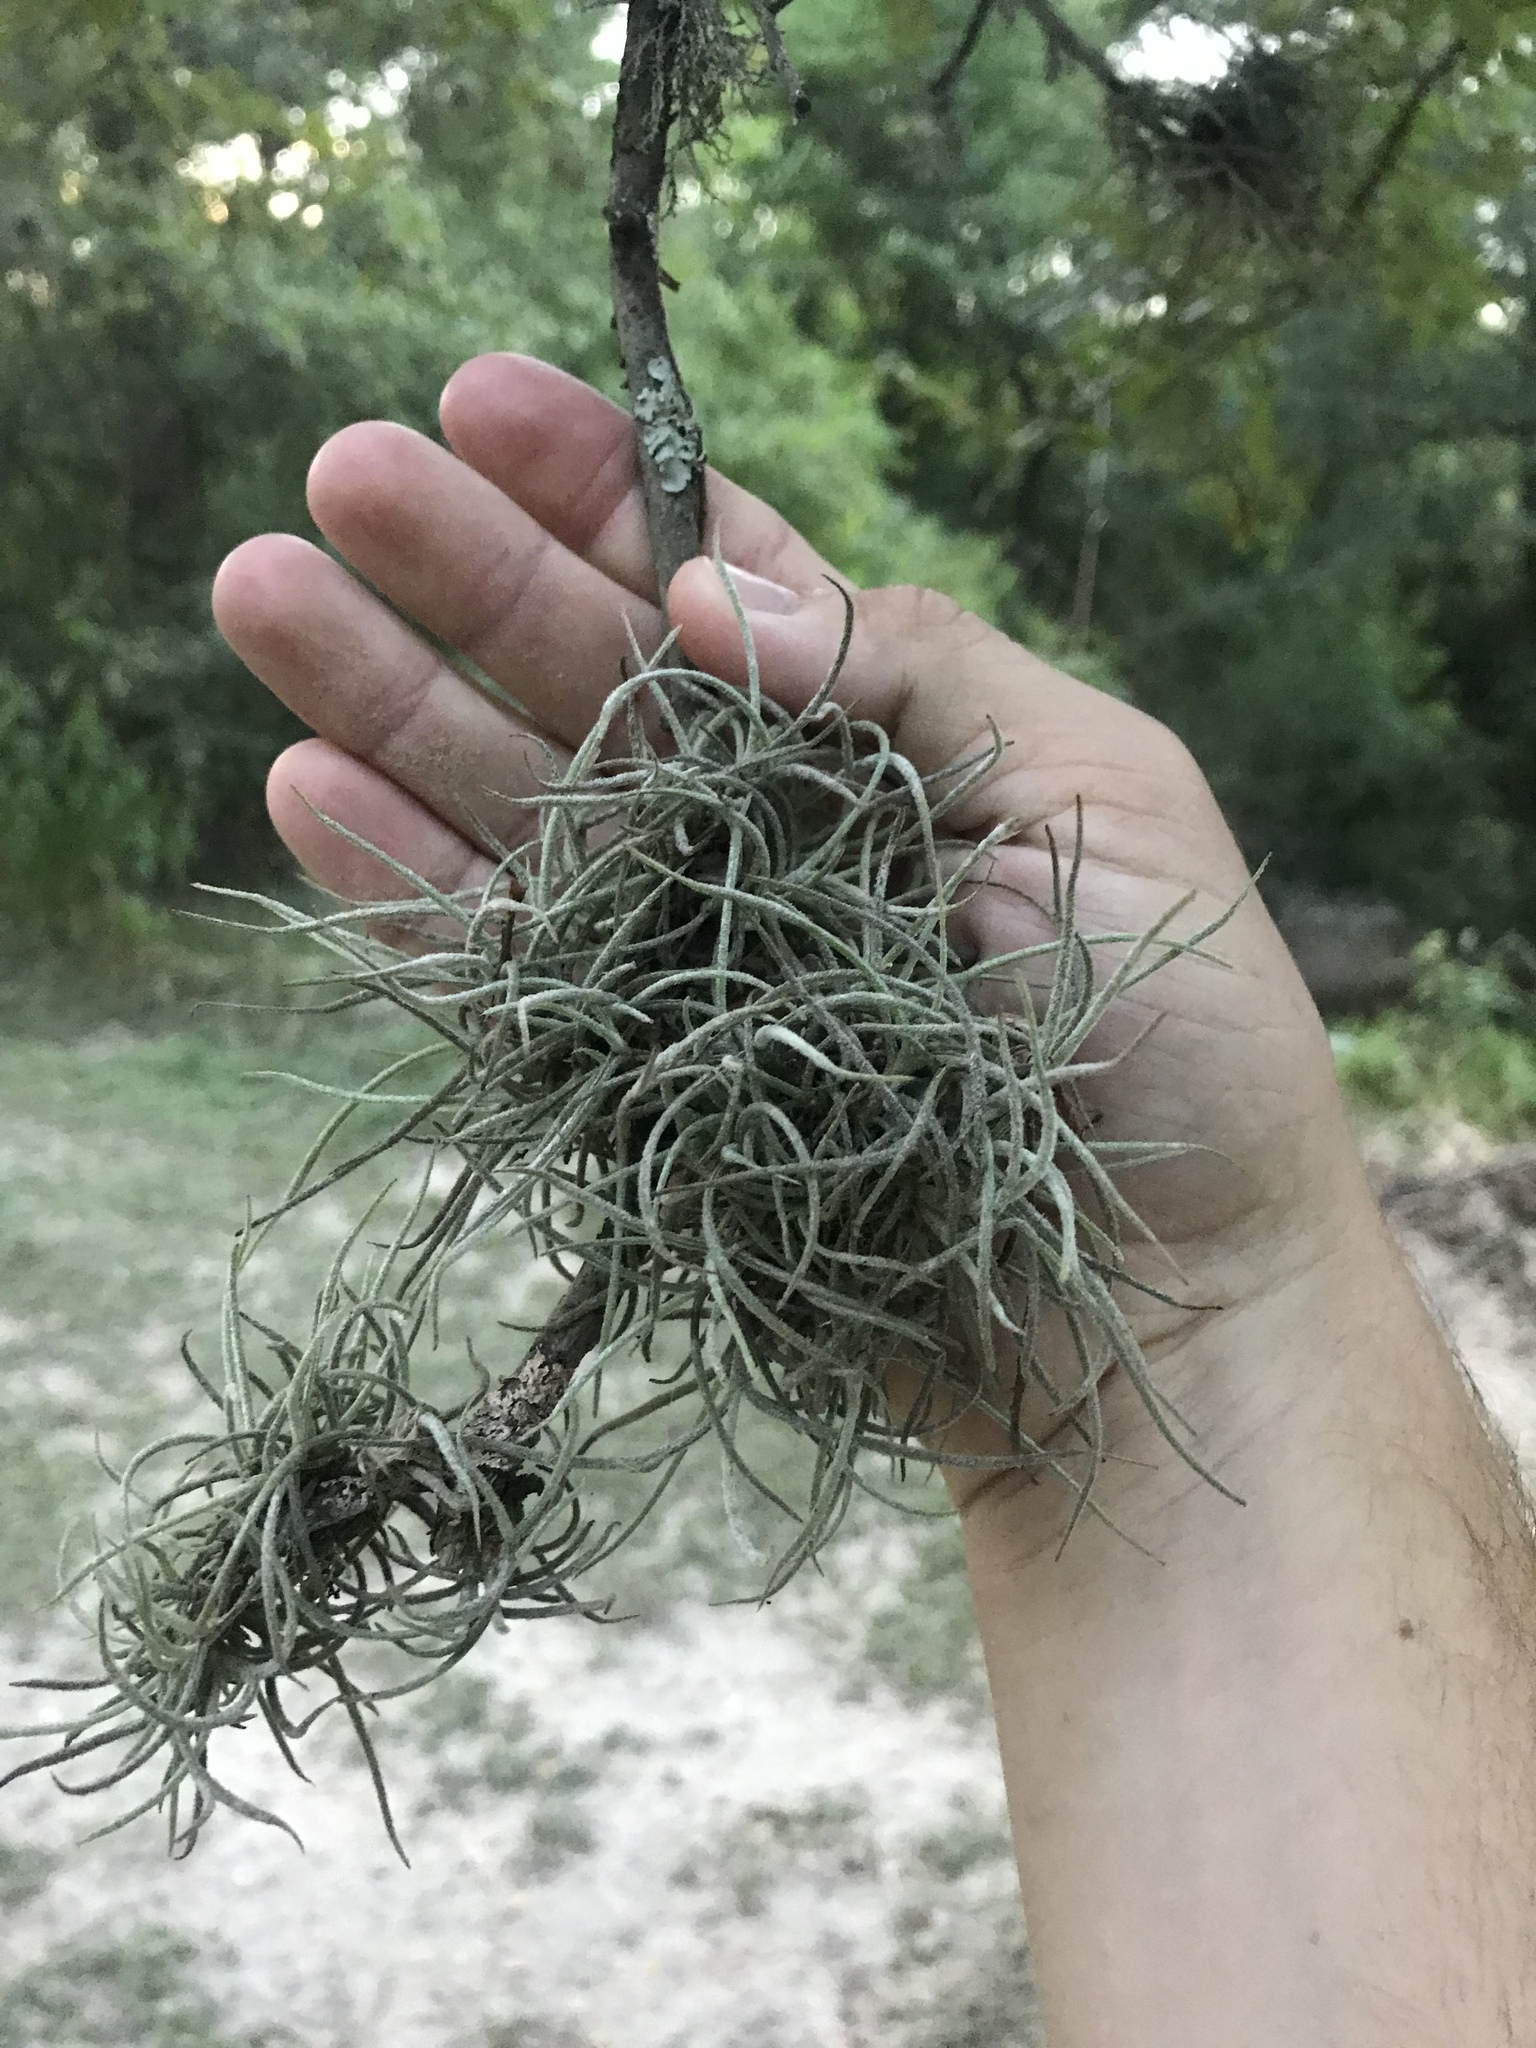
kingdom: Plantae
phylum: Tracheophyta
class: Liliopsida
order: Poales
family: Bromeliaceae
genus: Tillandsia
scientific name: Tillandsia recurvata
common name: Small ballmoss
